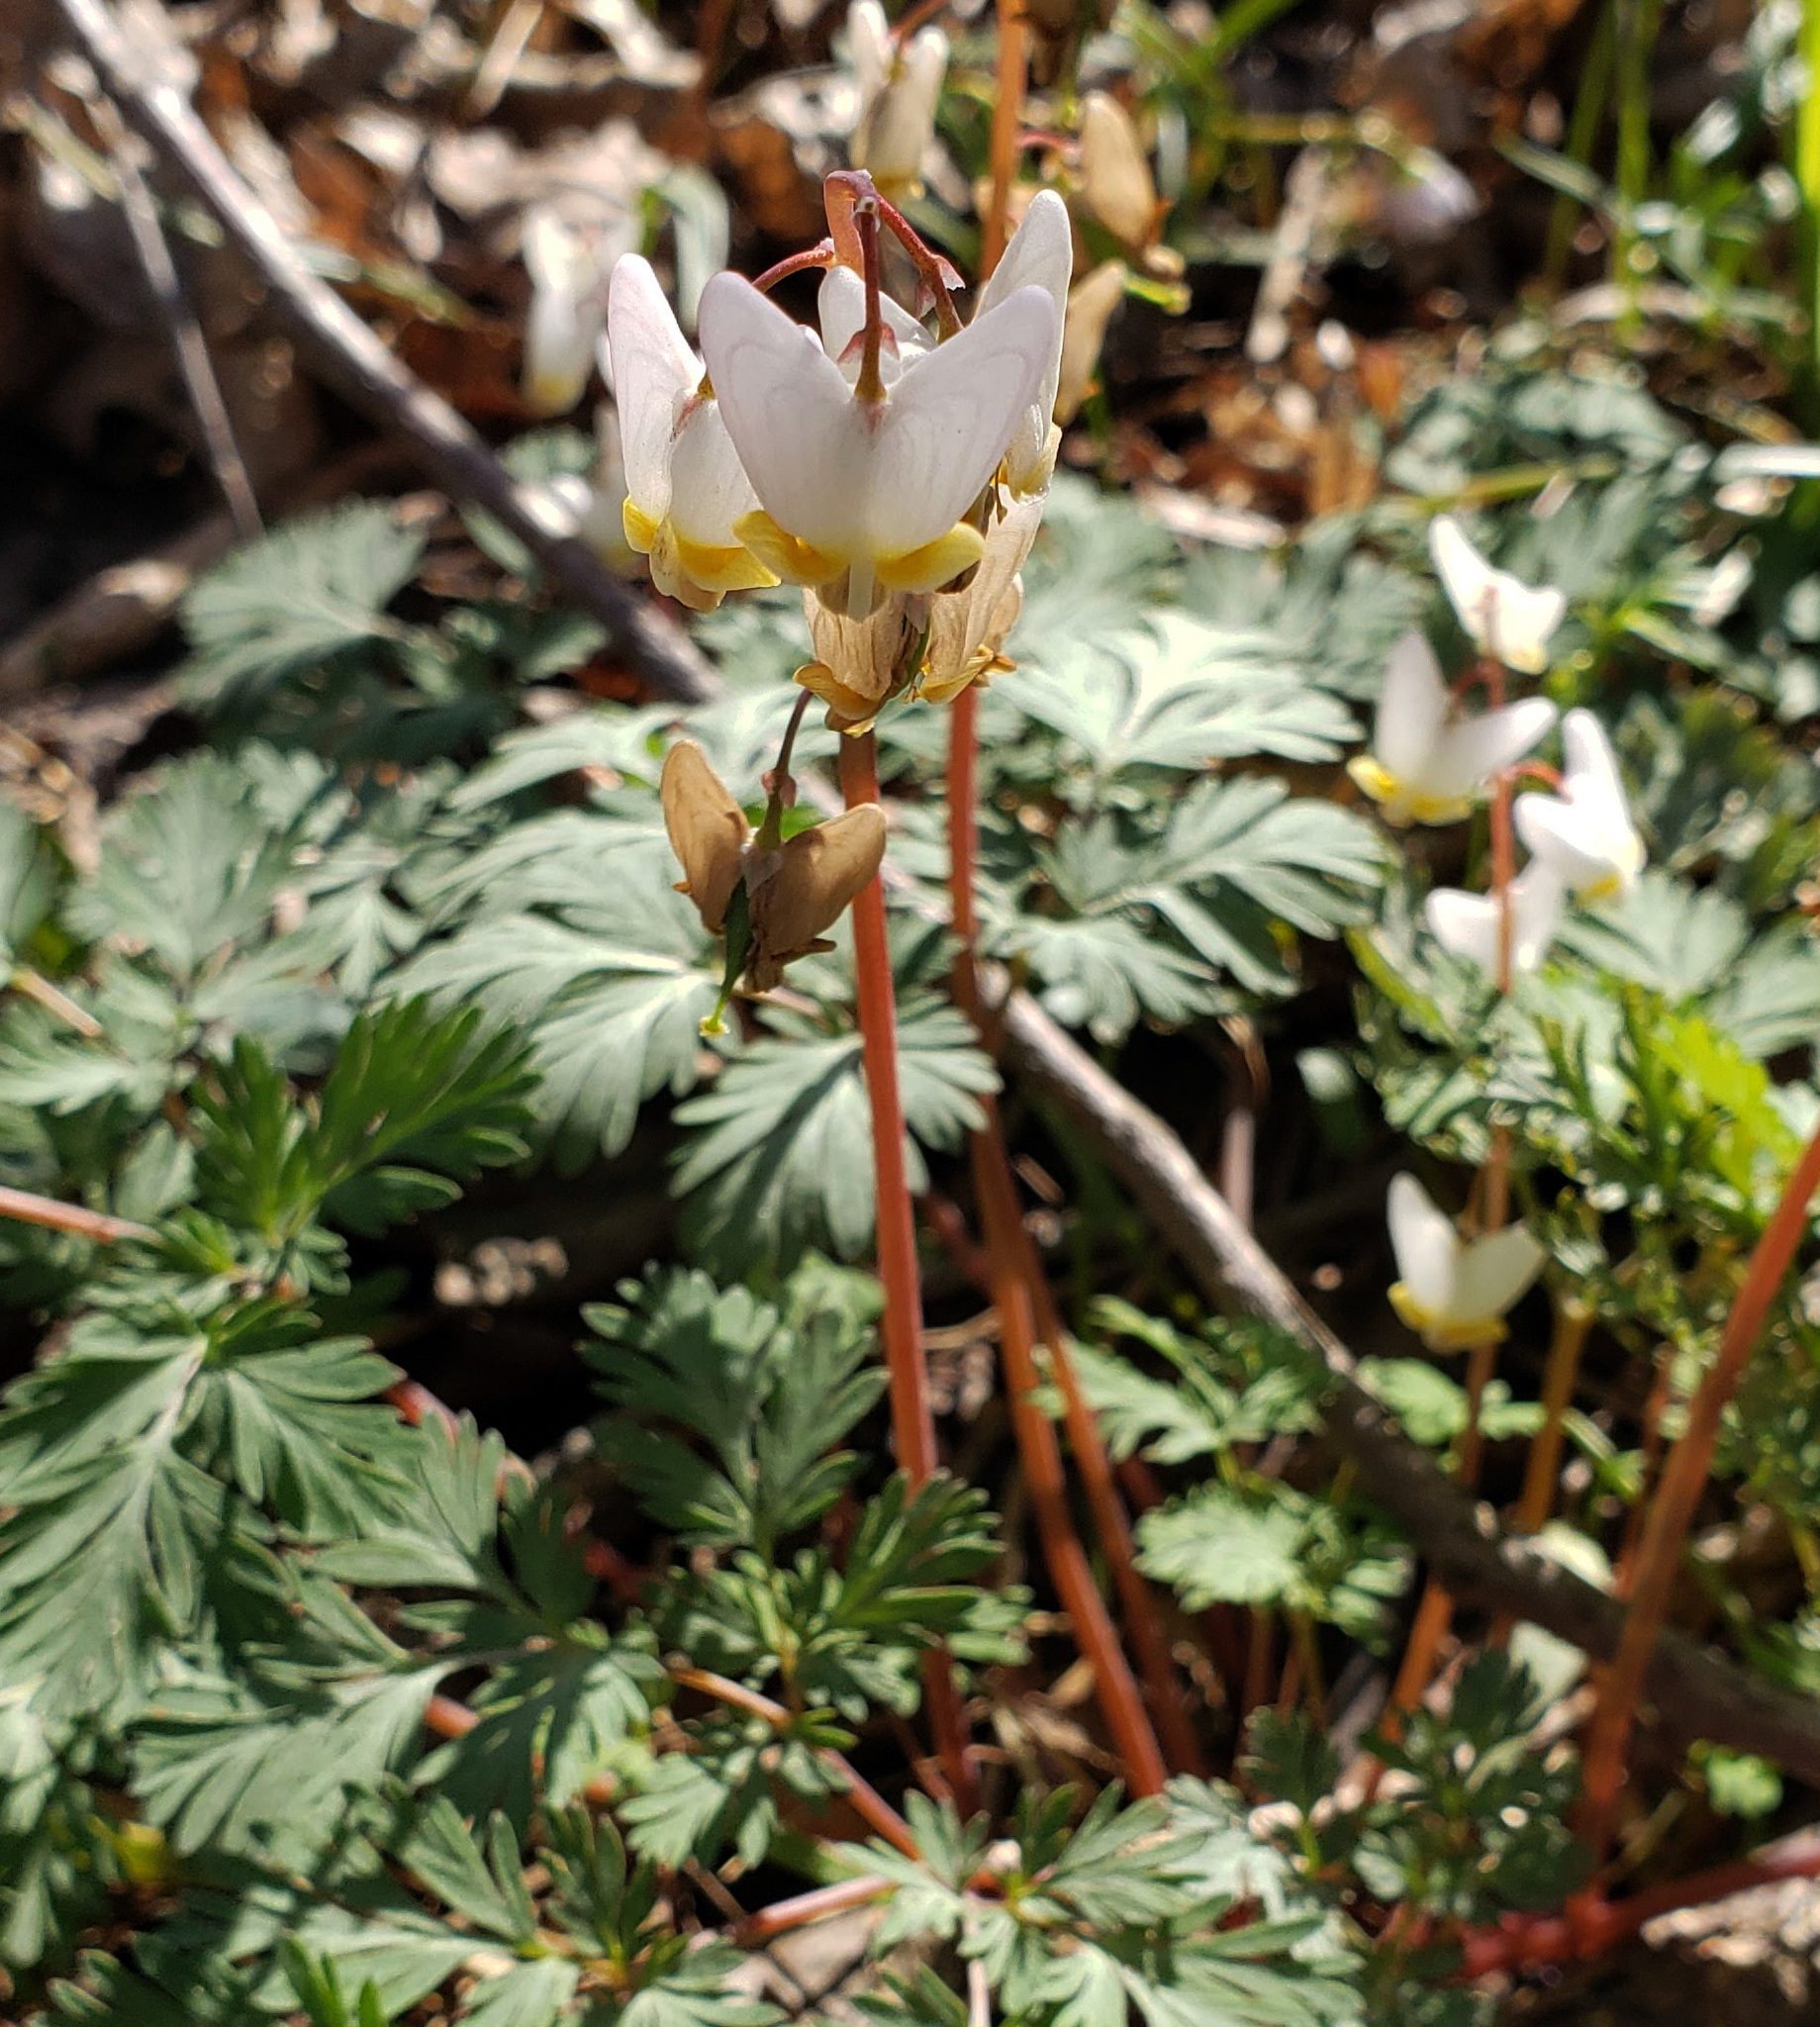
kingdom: Plantae
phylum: Tracheophyta
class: Magnoliopsida
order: Ranunculales
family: Papaveraceae
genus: Dicentra
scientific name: Dicentra cucullaria
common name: Dutchman's breeches
